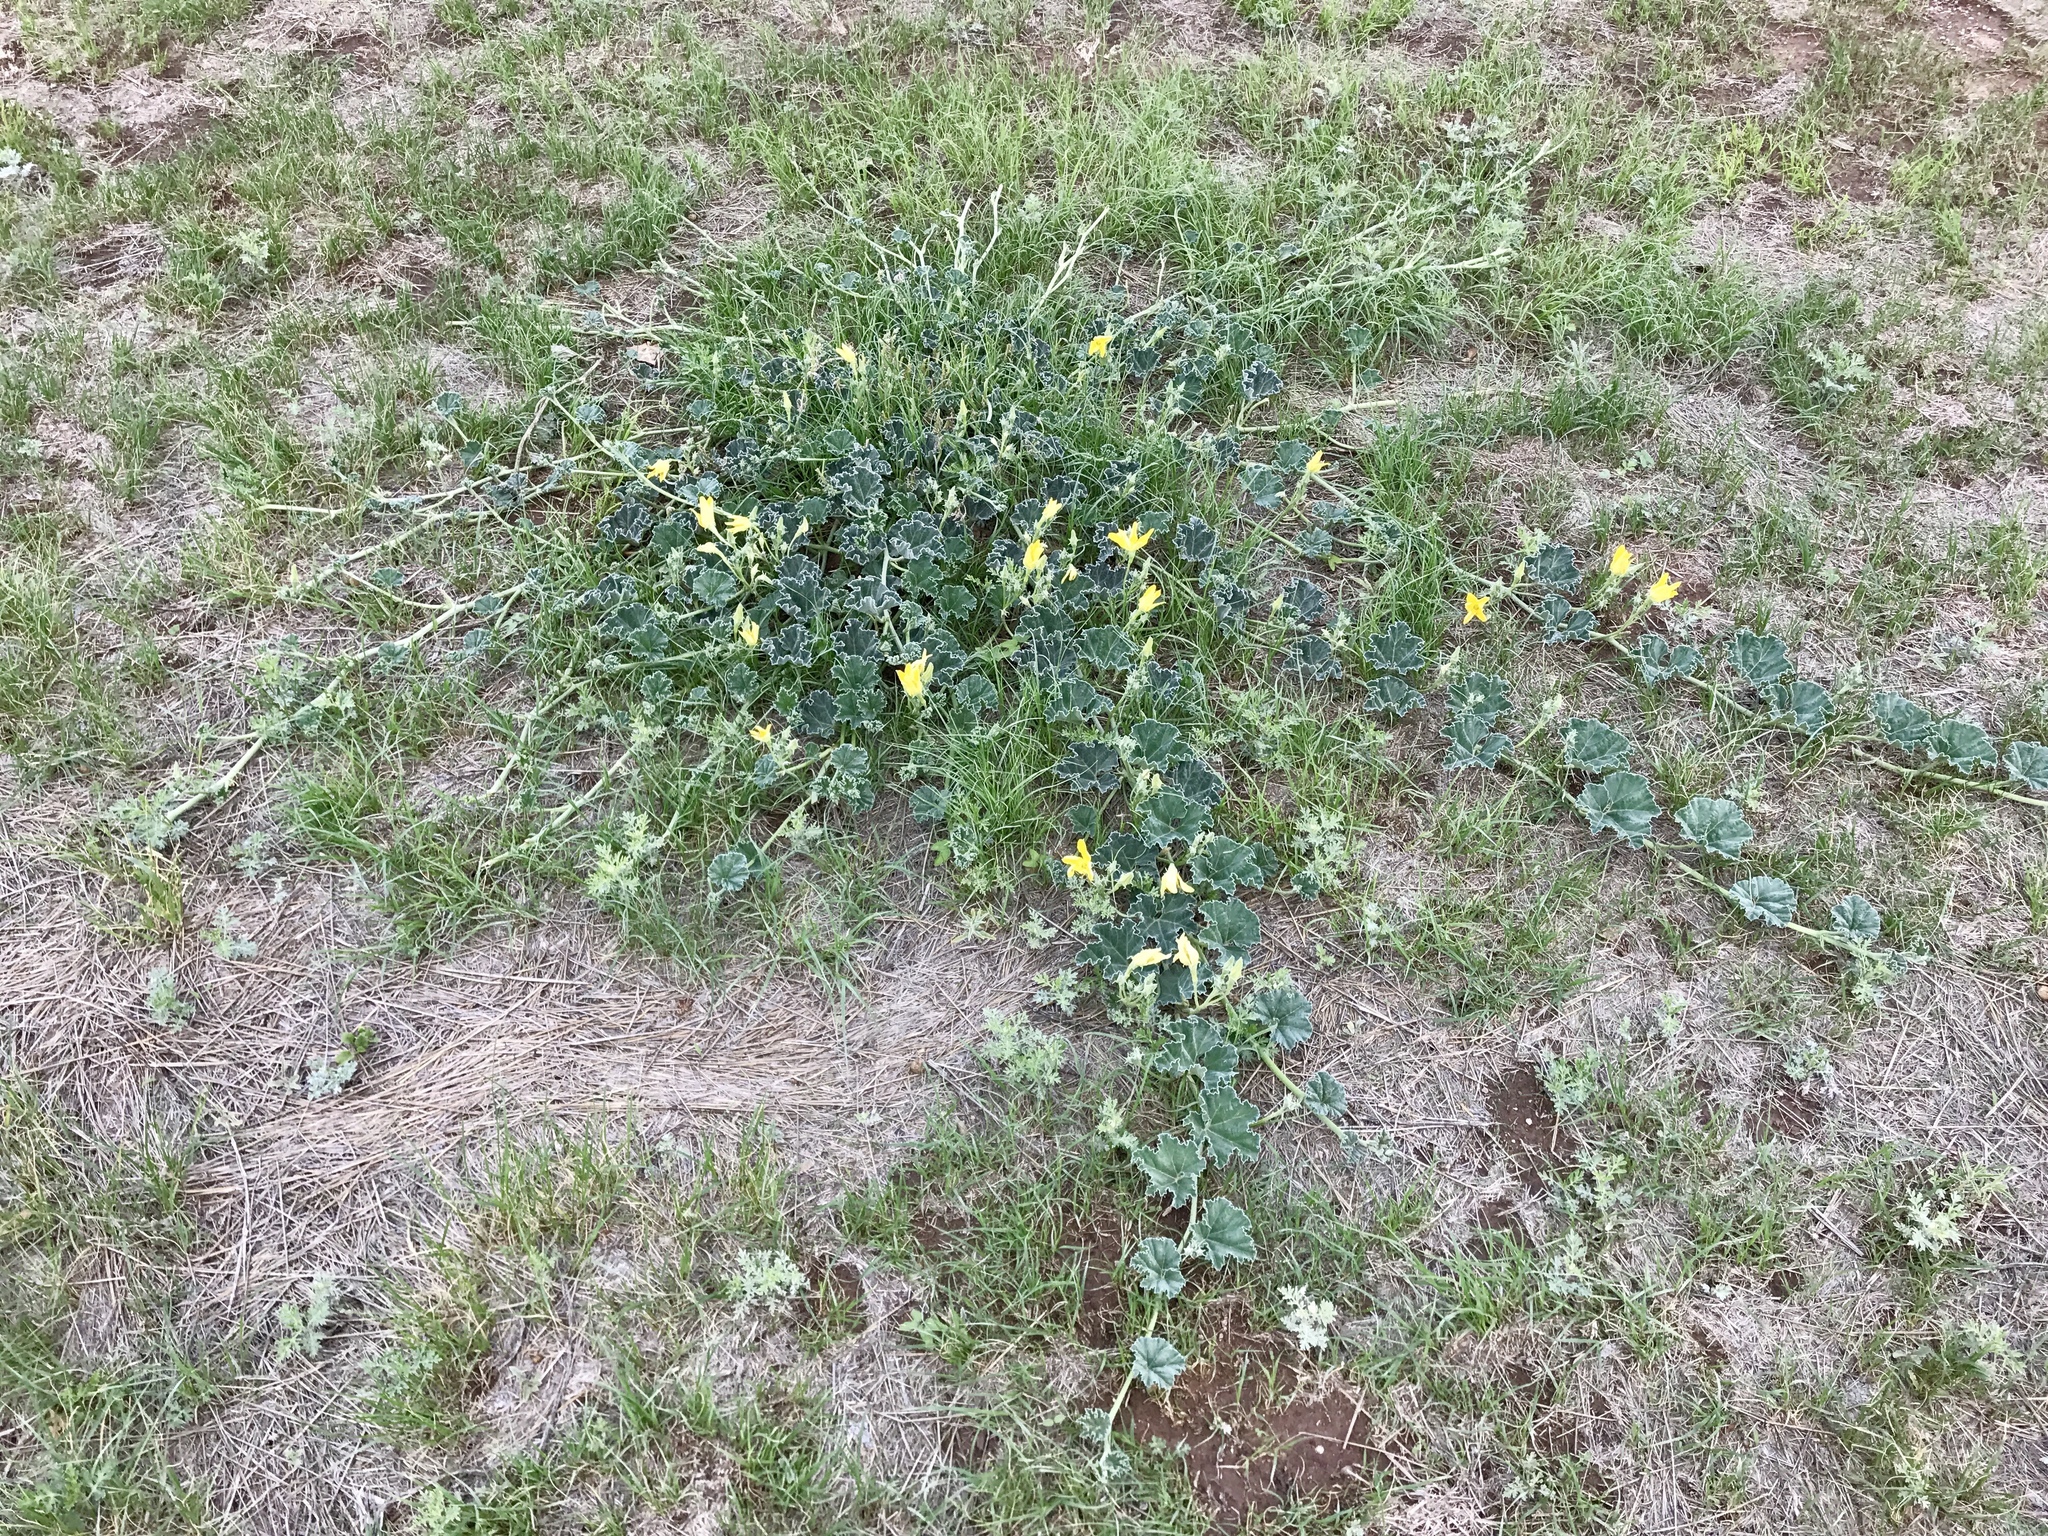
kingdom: Plantae
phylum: Tracheophyta
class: Magnoliopsida
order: Cucurbitales
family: Cucurbitaceae
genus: Apodanthera
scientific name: Apodanthera undulata
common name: Melon-loco
